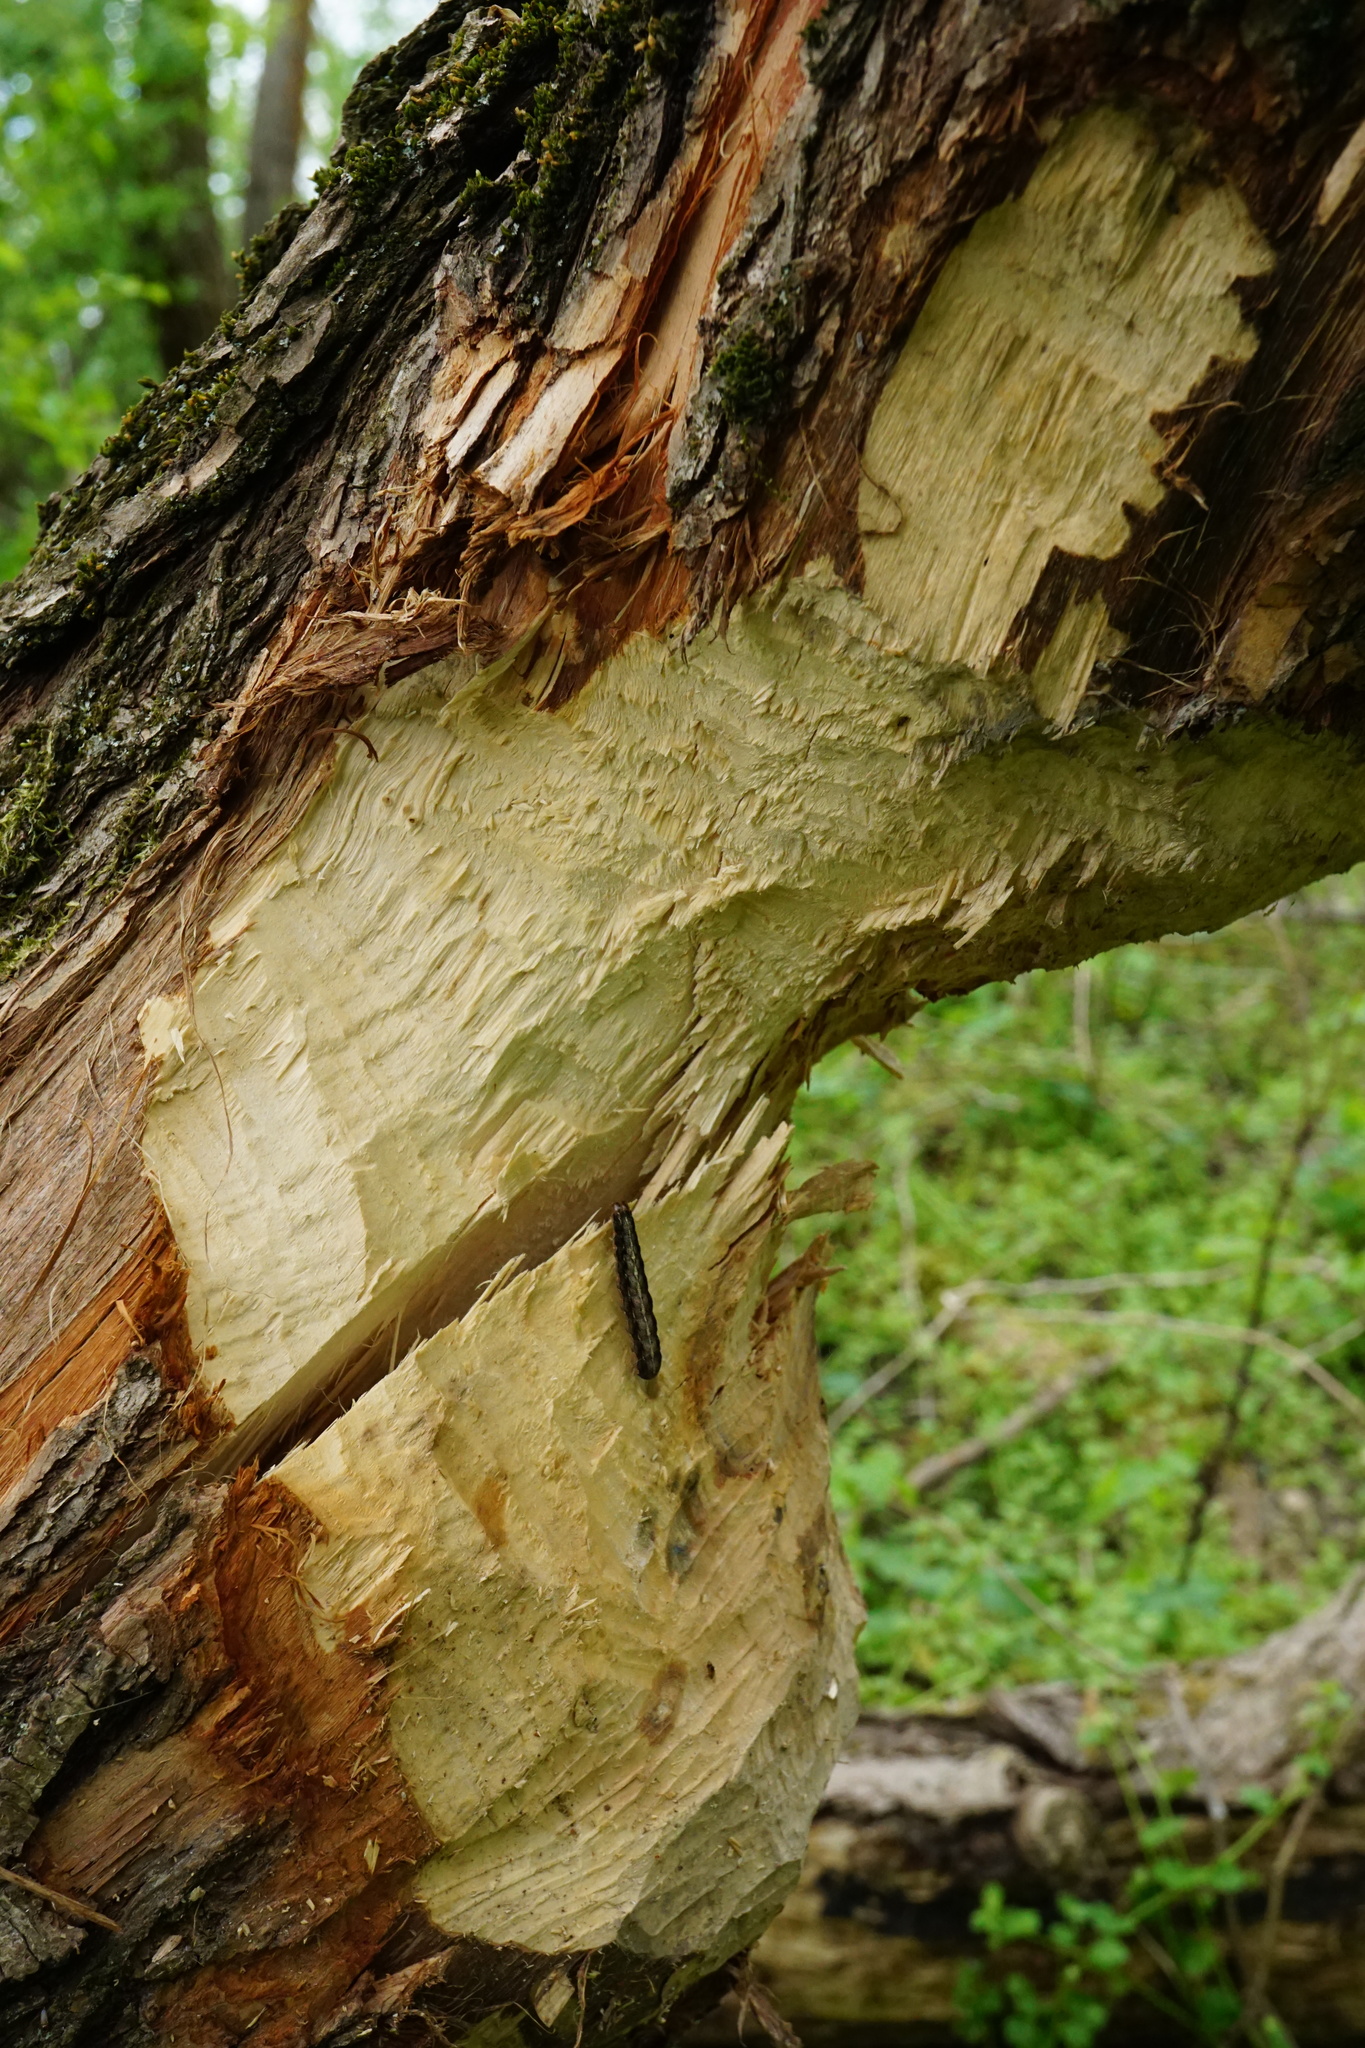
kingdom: Animalia
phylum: Chordata
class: Mammalia
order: Rodentia
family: Castoridae
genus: Castor
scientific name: Castor fiber
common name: Eurasian beaver
